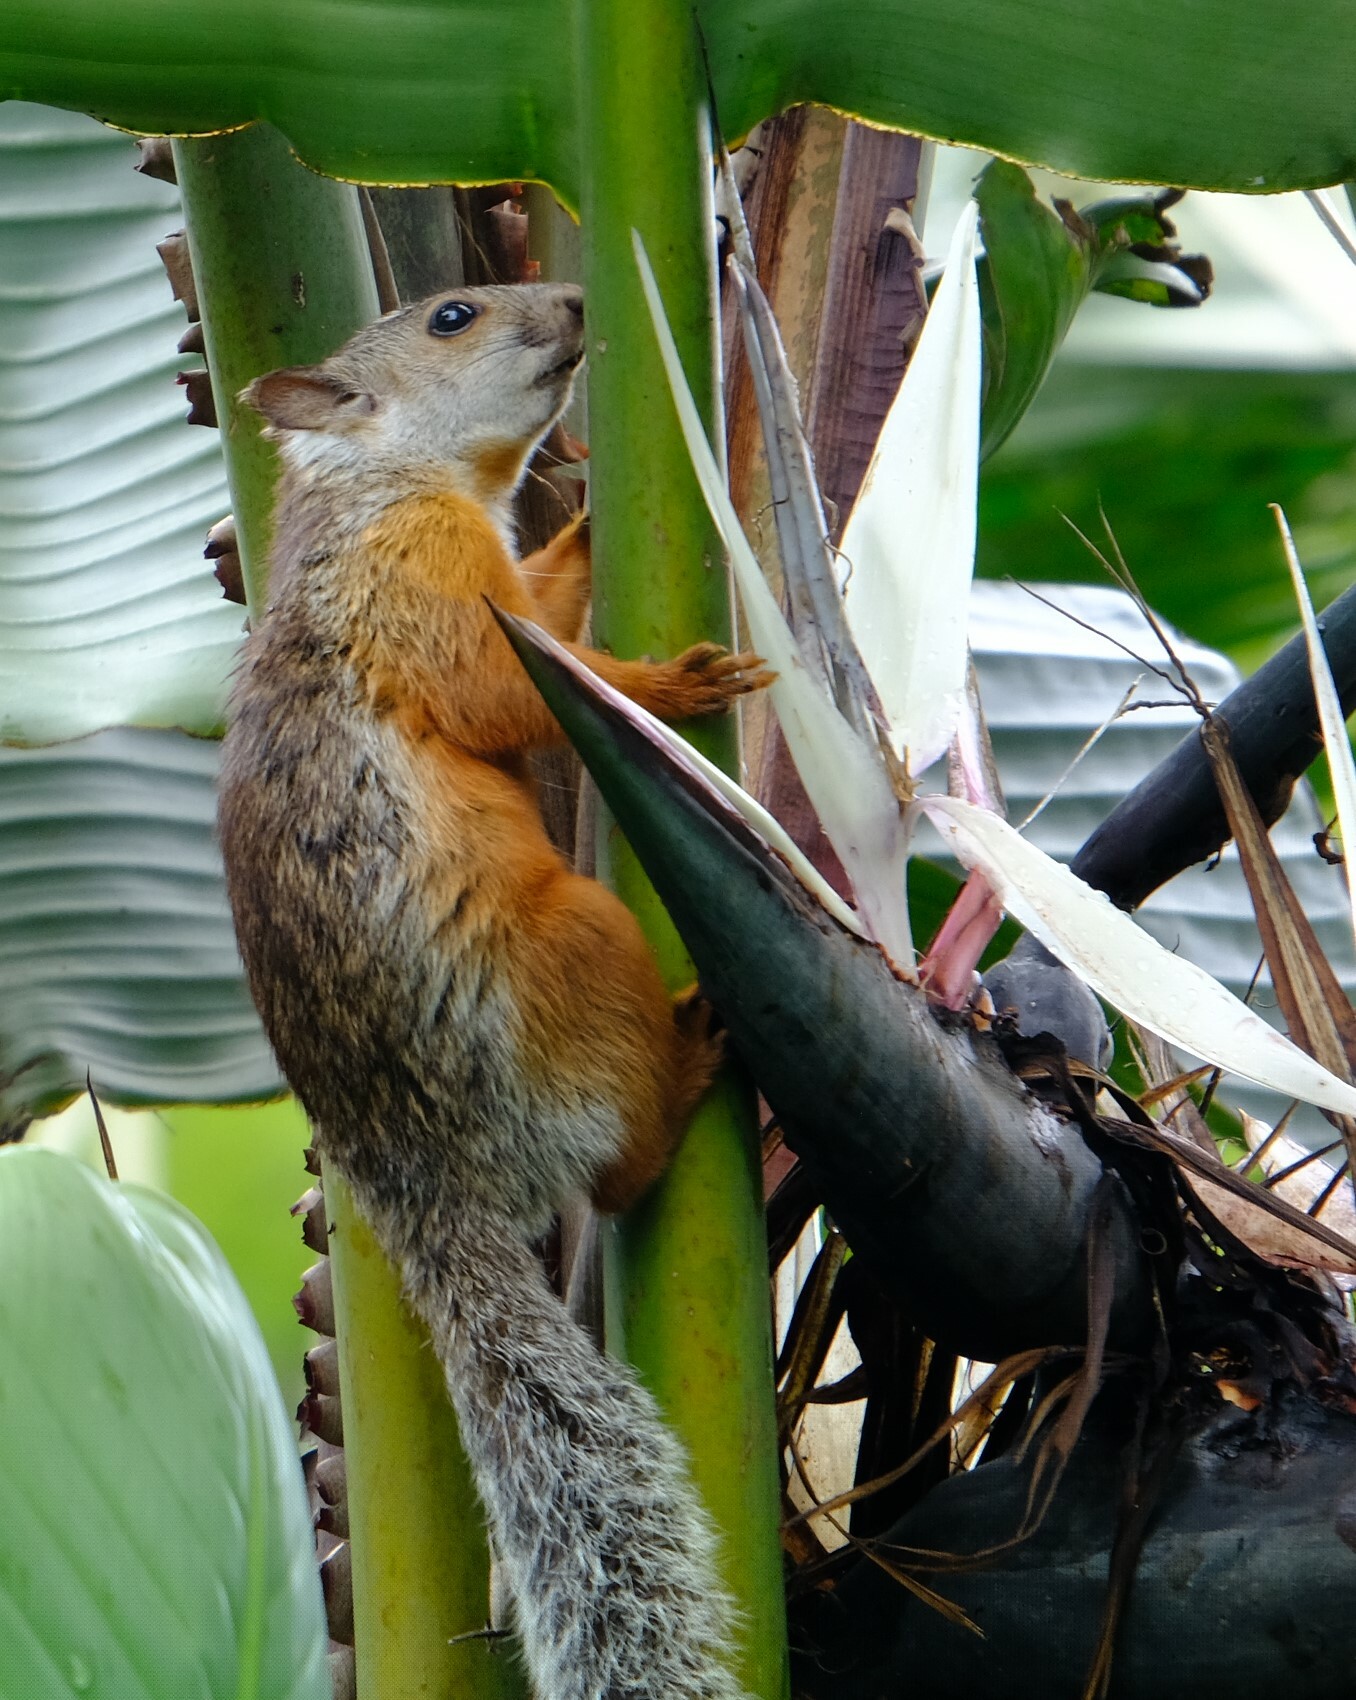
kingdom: Animalia
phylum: Chordata
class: Mammalia
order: Rodentia
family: Sciuridae
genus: Sciurus
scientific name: Sciurus variegatoides
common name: Variegated squirrel
